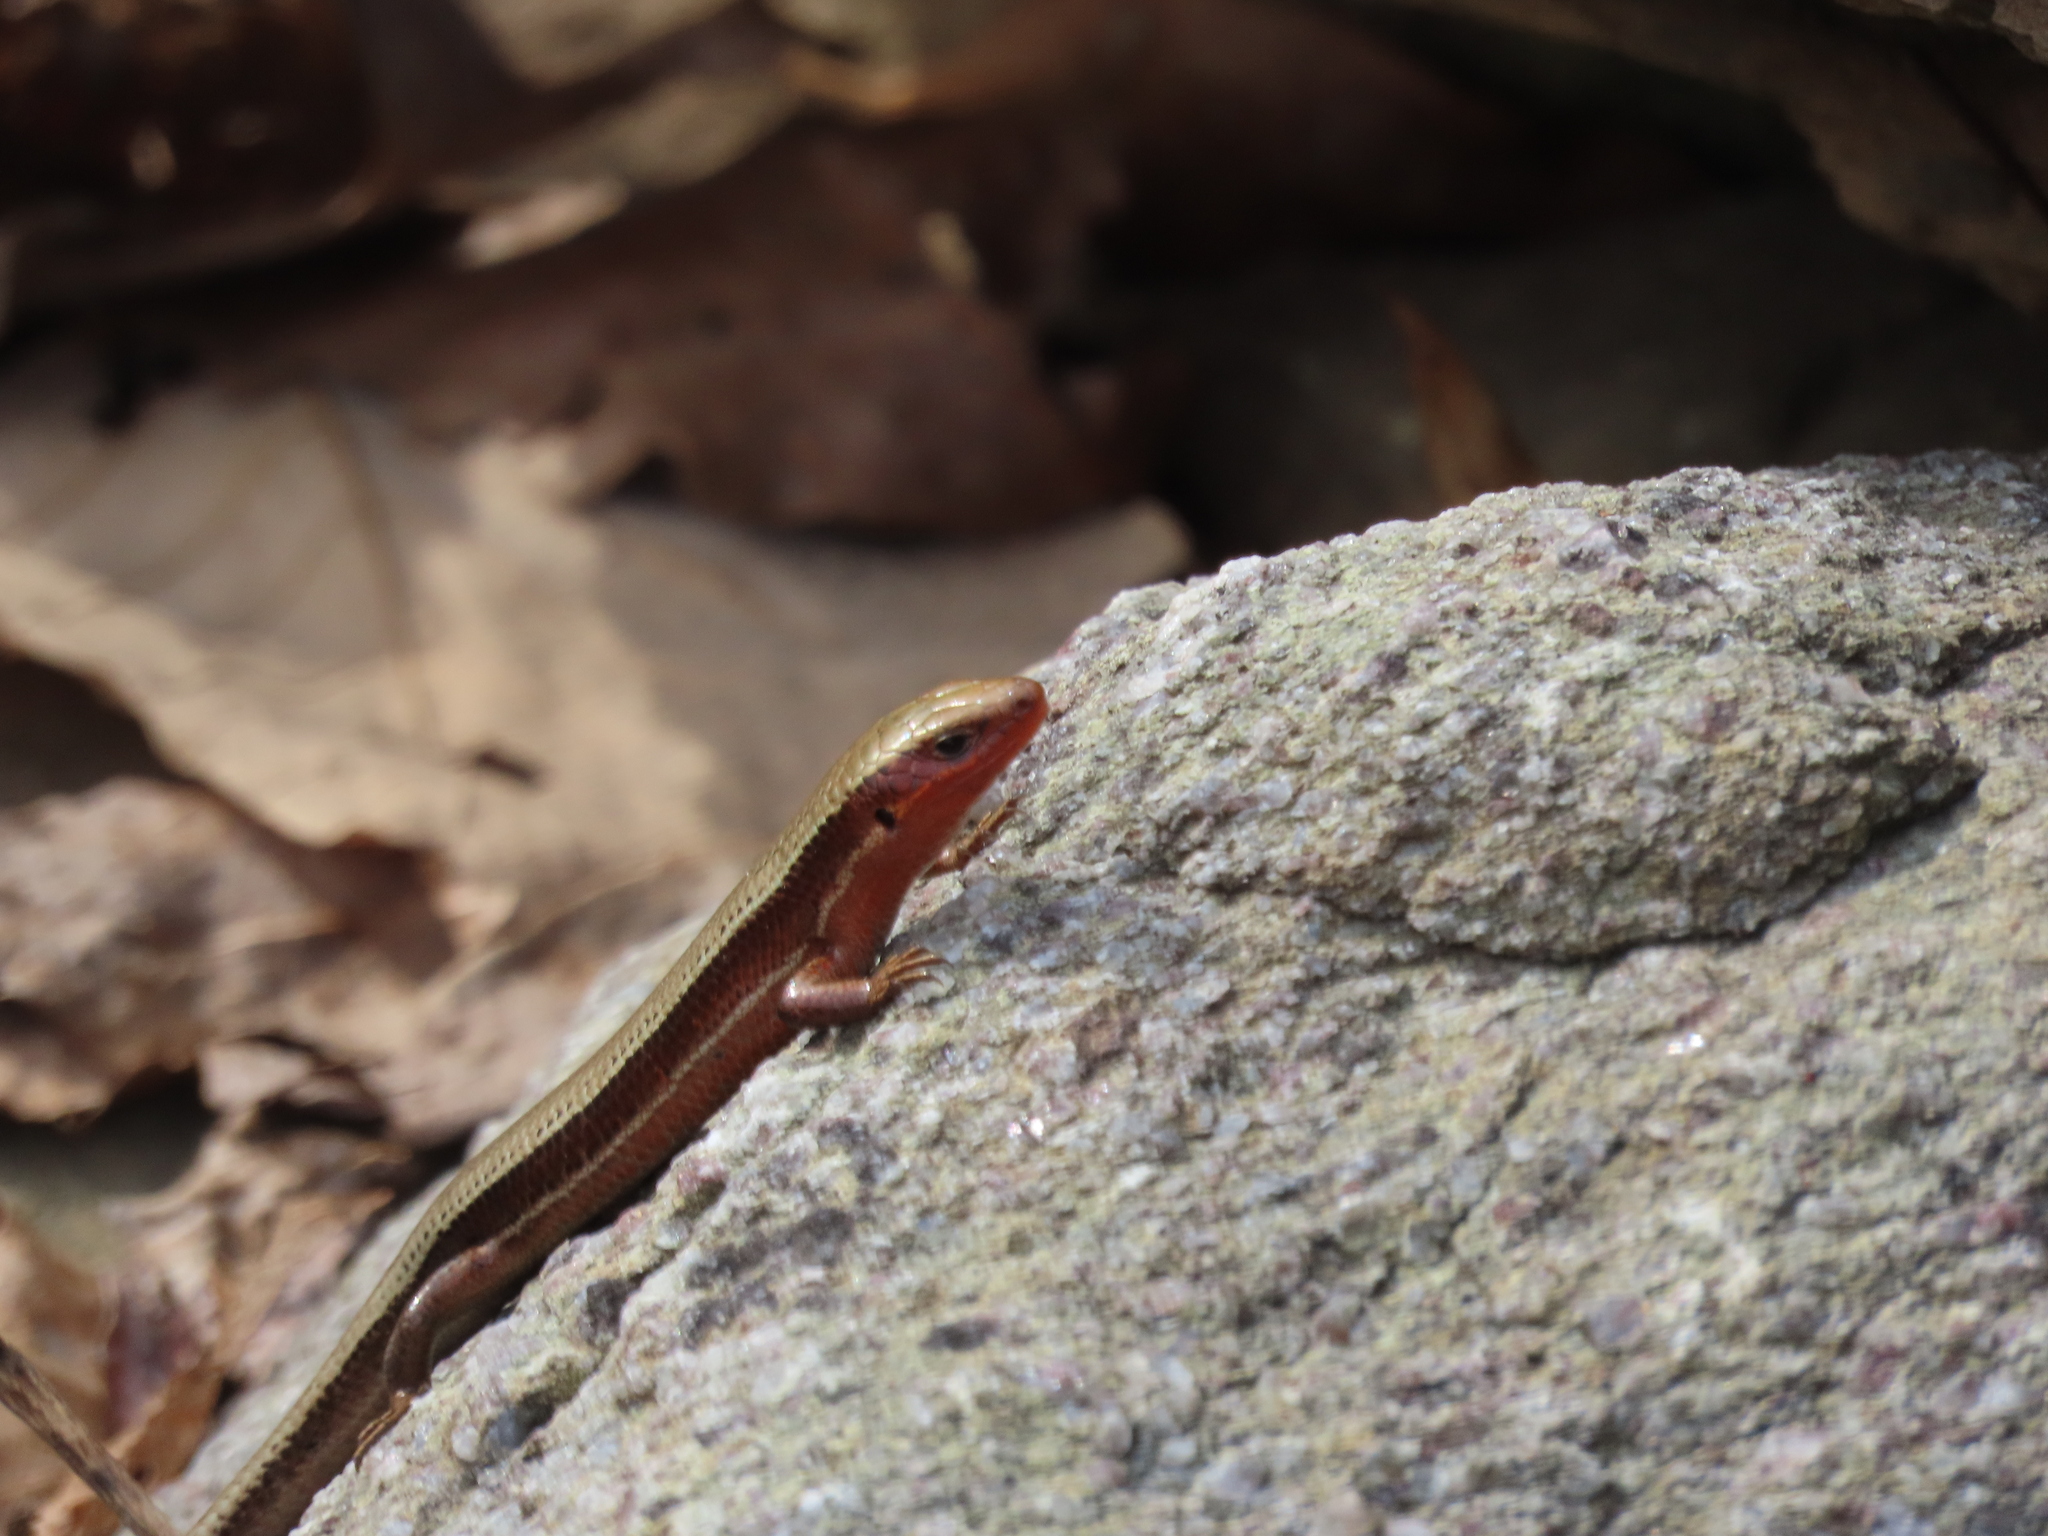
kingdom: Animalia
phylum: Chordata
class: Squamata
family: Scincidae
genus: Plestiodon
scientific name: Plestiodon anthracinus
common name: Coal skink
